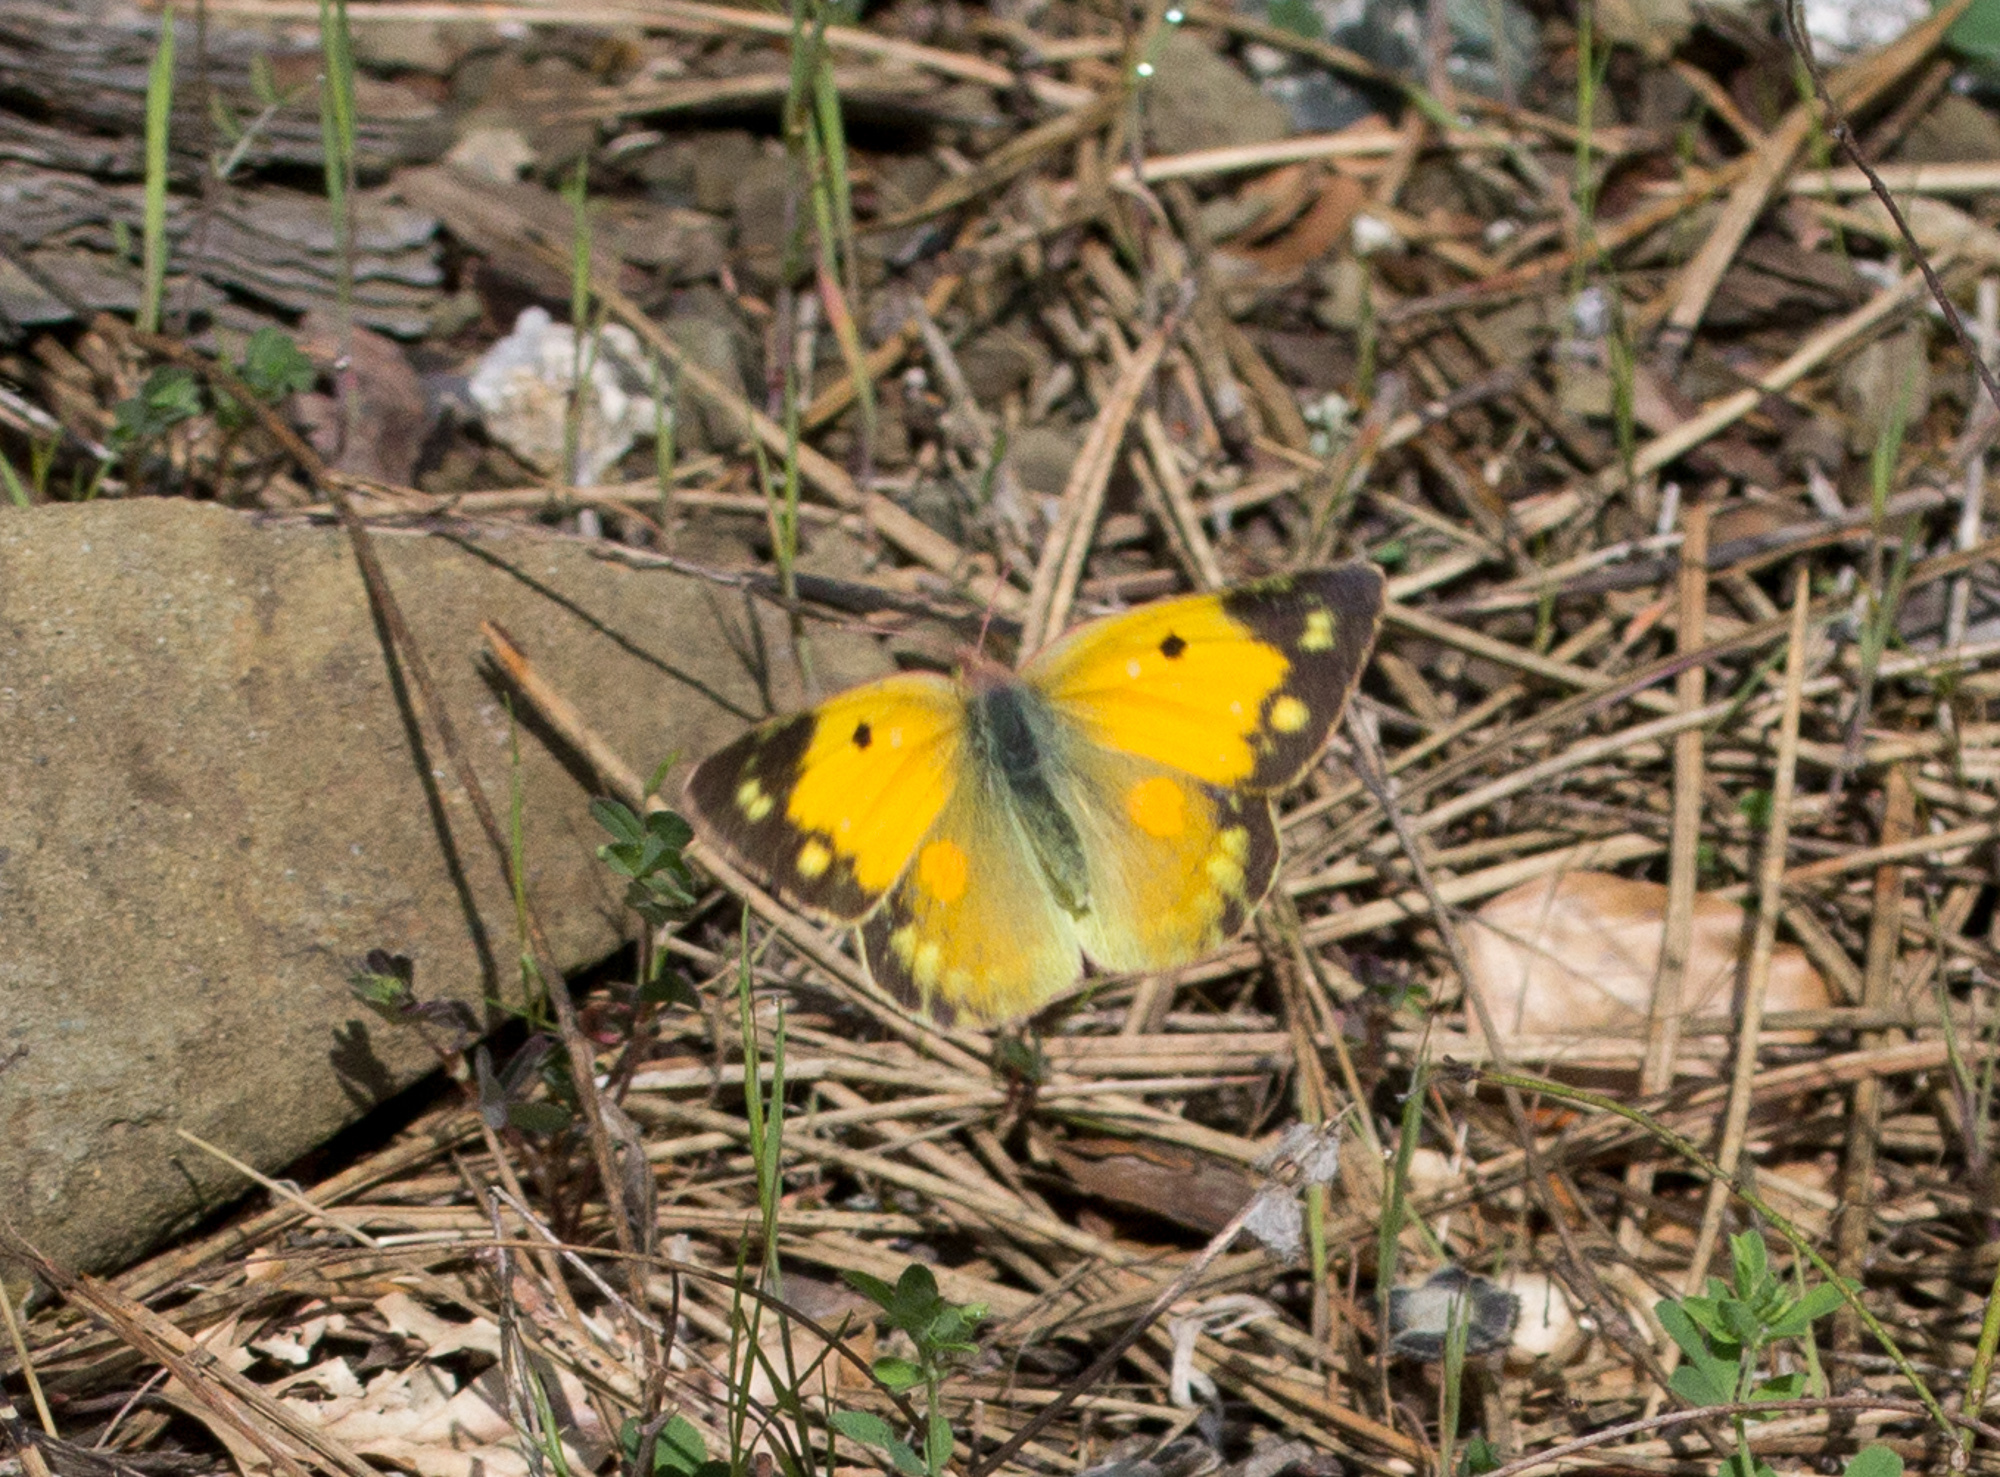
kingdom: Animalia
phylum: Arthropoda
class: Insecta
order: Lepidoptera
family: Pieridae
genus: Colias
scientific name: Colias croceus
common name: Clouded yellow
